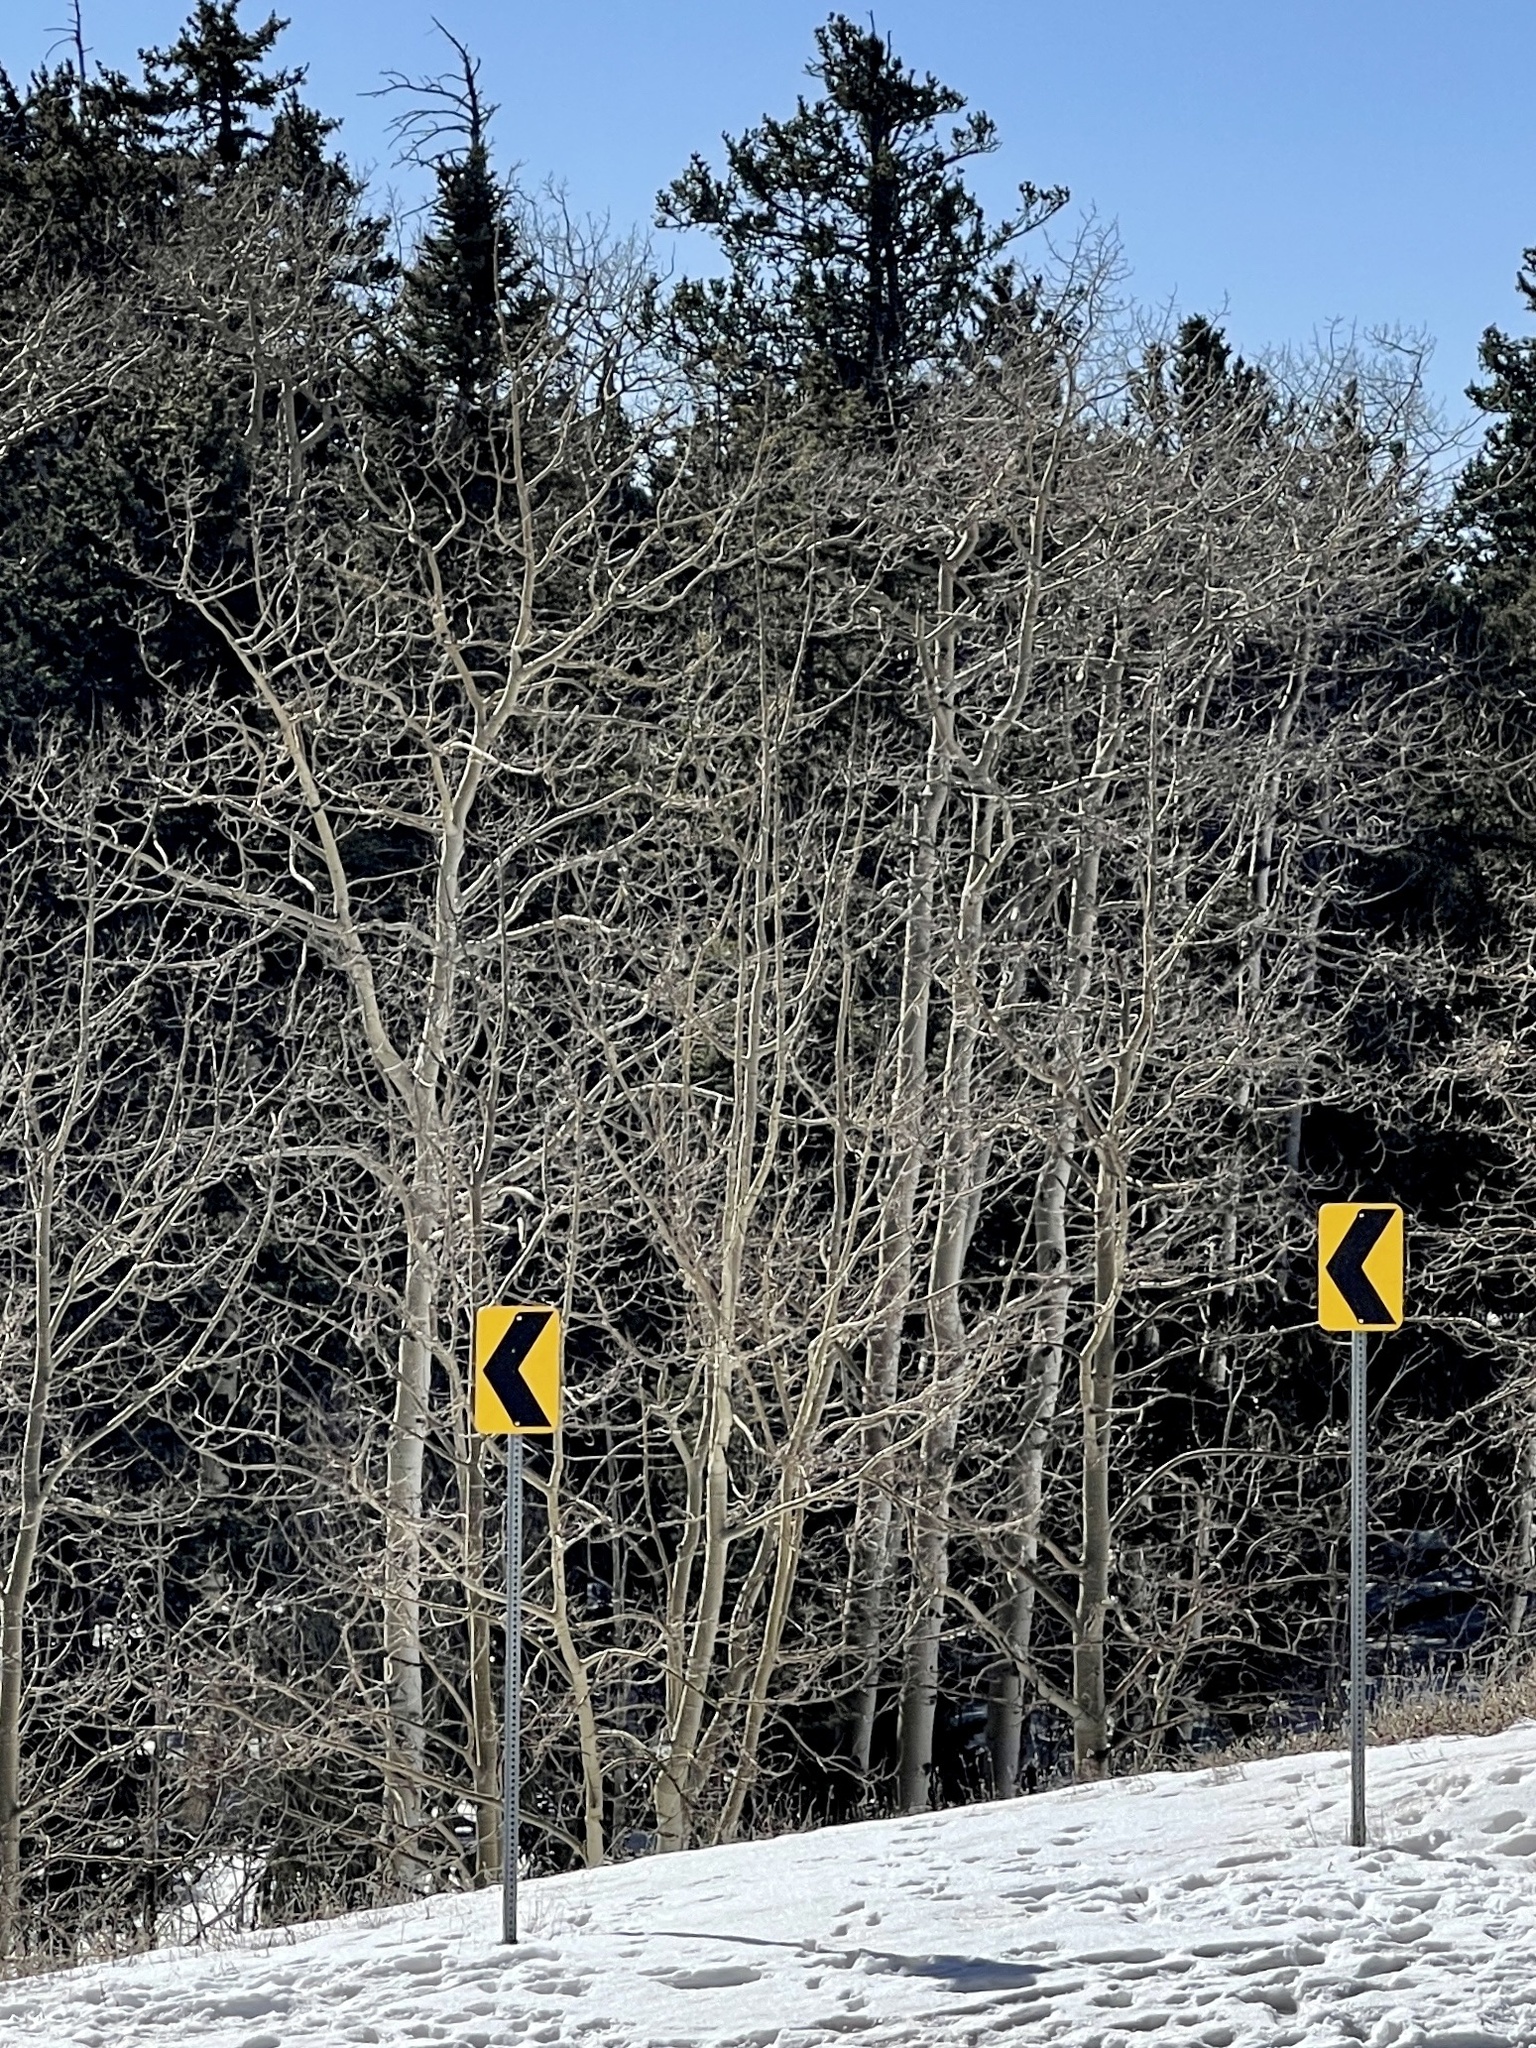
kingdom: Plantae
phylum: Tracheophyta
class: Magnoliopsida
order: Malpighiales
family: Salicaceae
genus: Populus
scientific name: Populus tremuloides
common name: Quaking aspen
